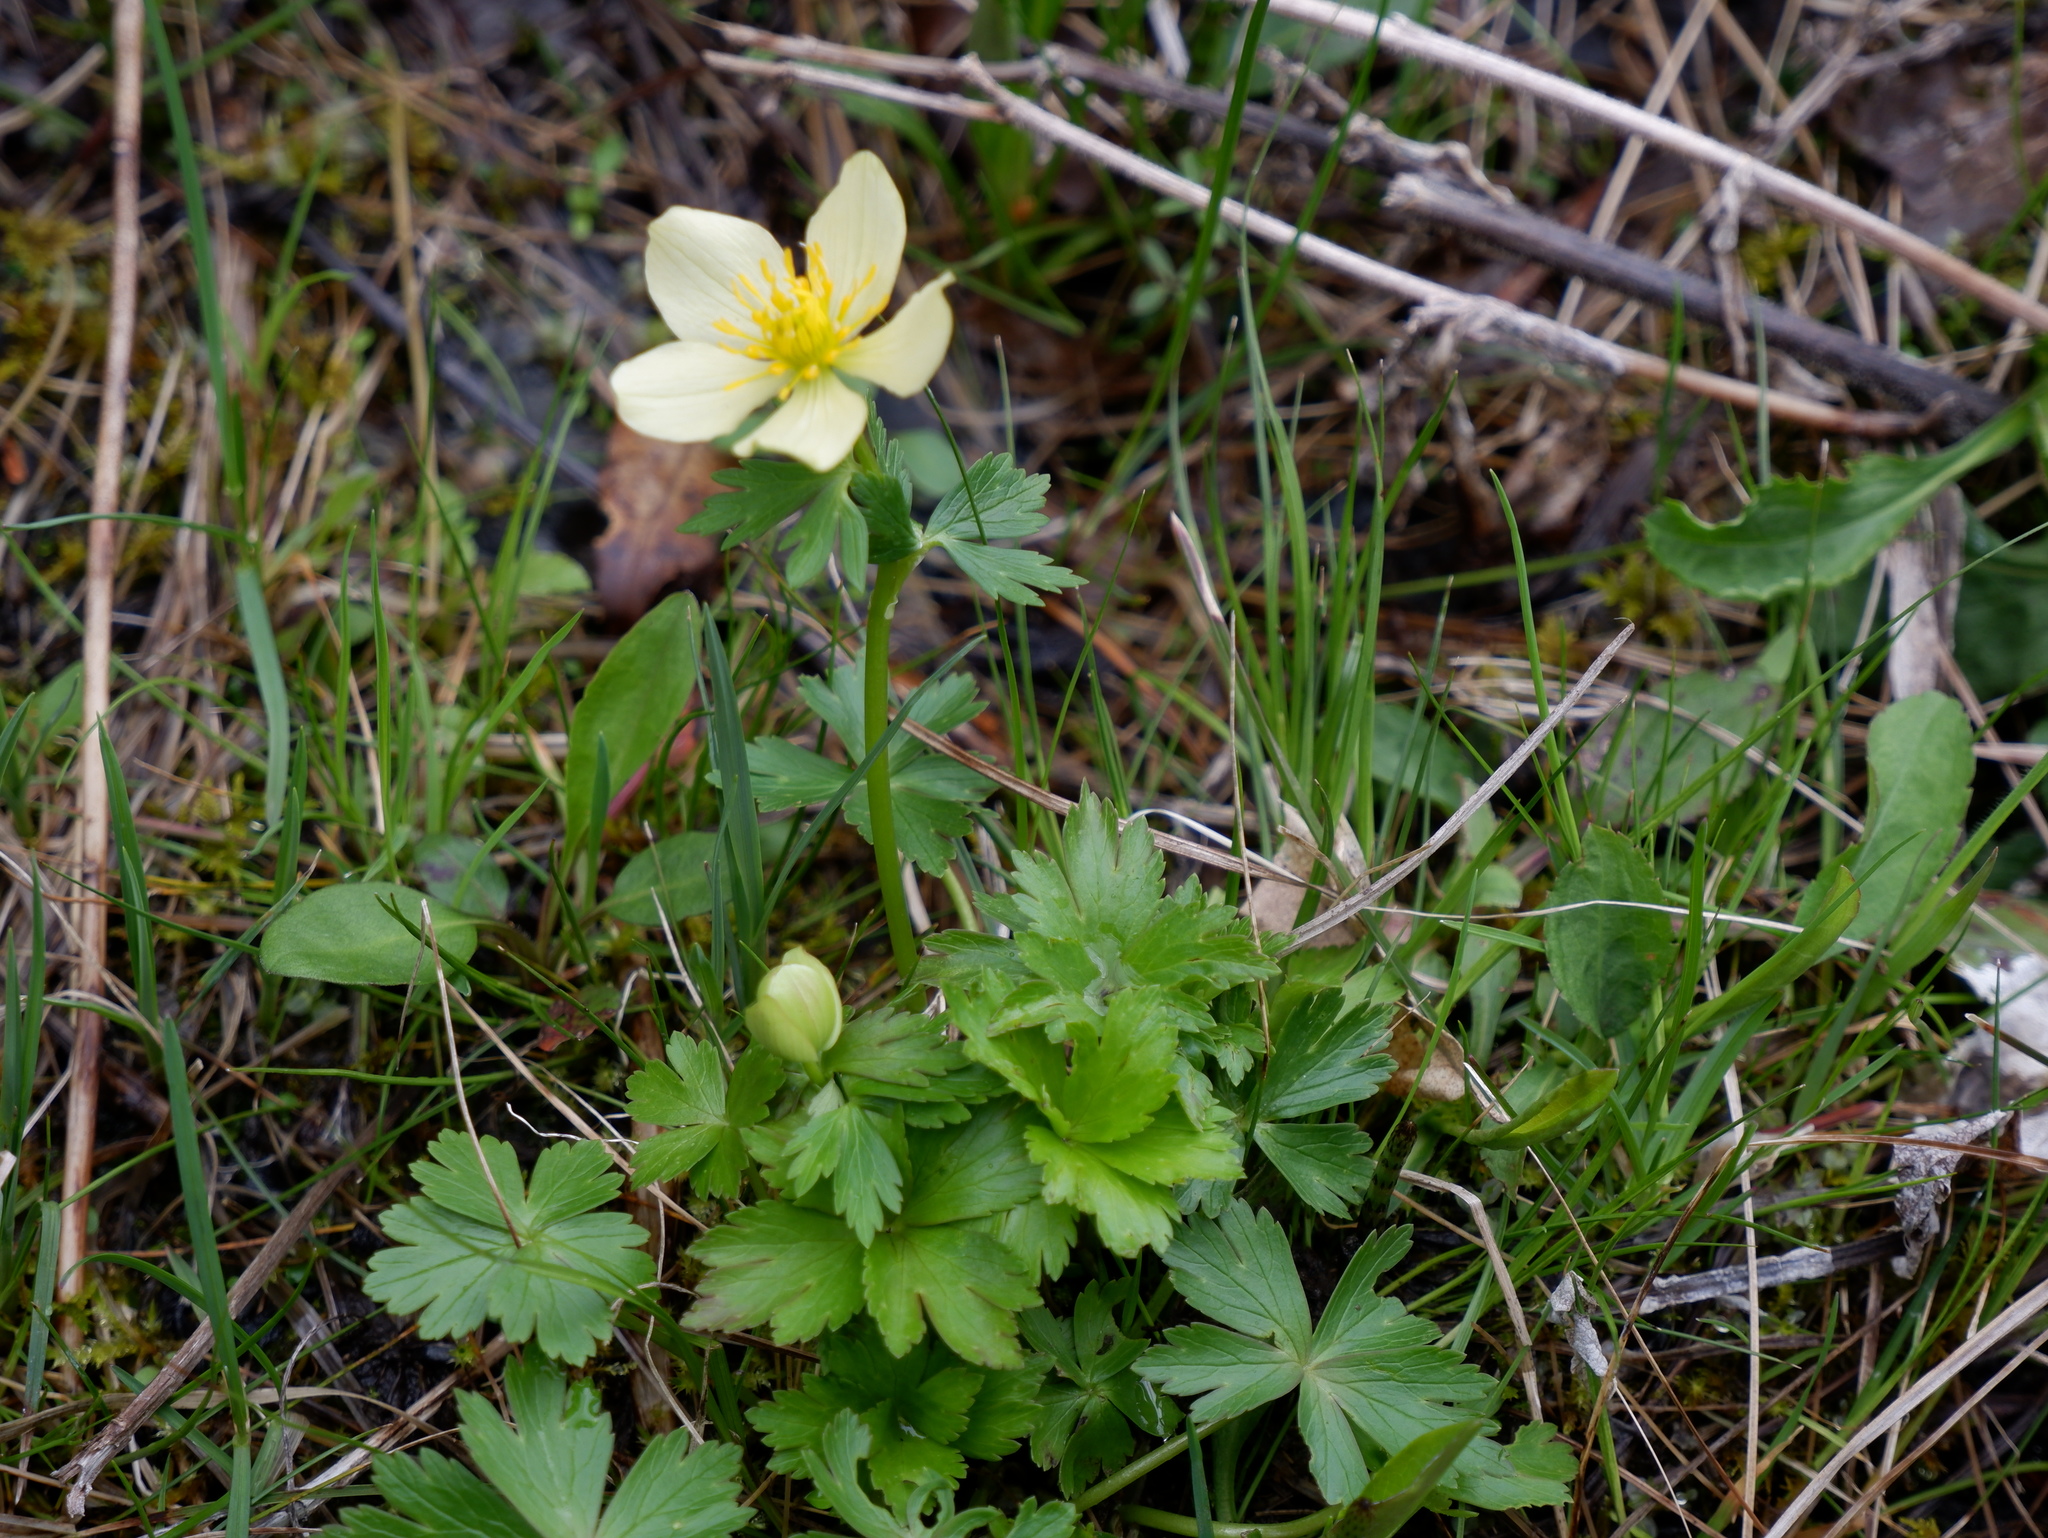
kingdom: Plantae
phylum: Tracheophyta
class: Magnoliopsida
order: Ranunculales
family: Ranunculaceae
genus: Trollius
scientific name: Trollius laxus
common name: American globeflower
